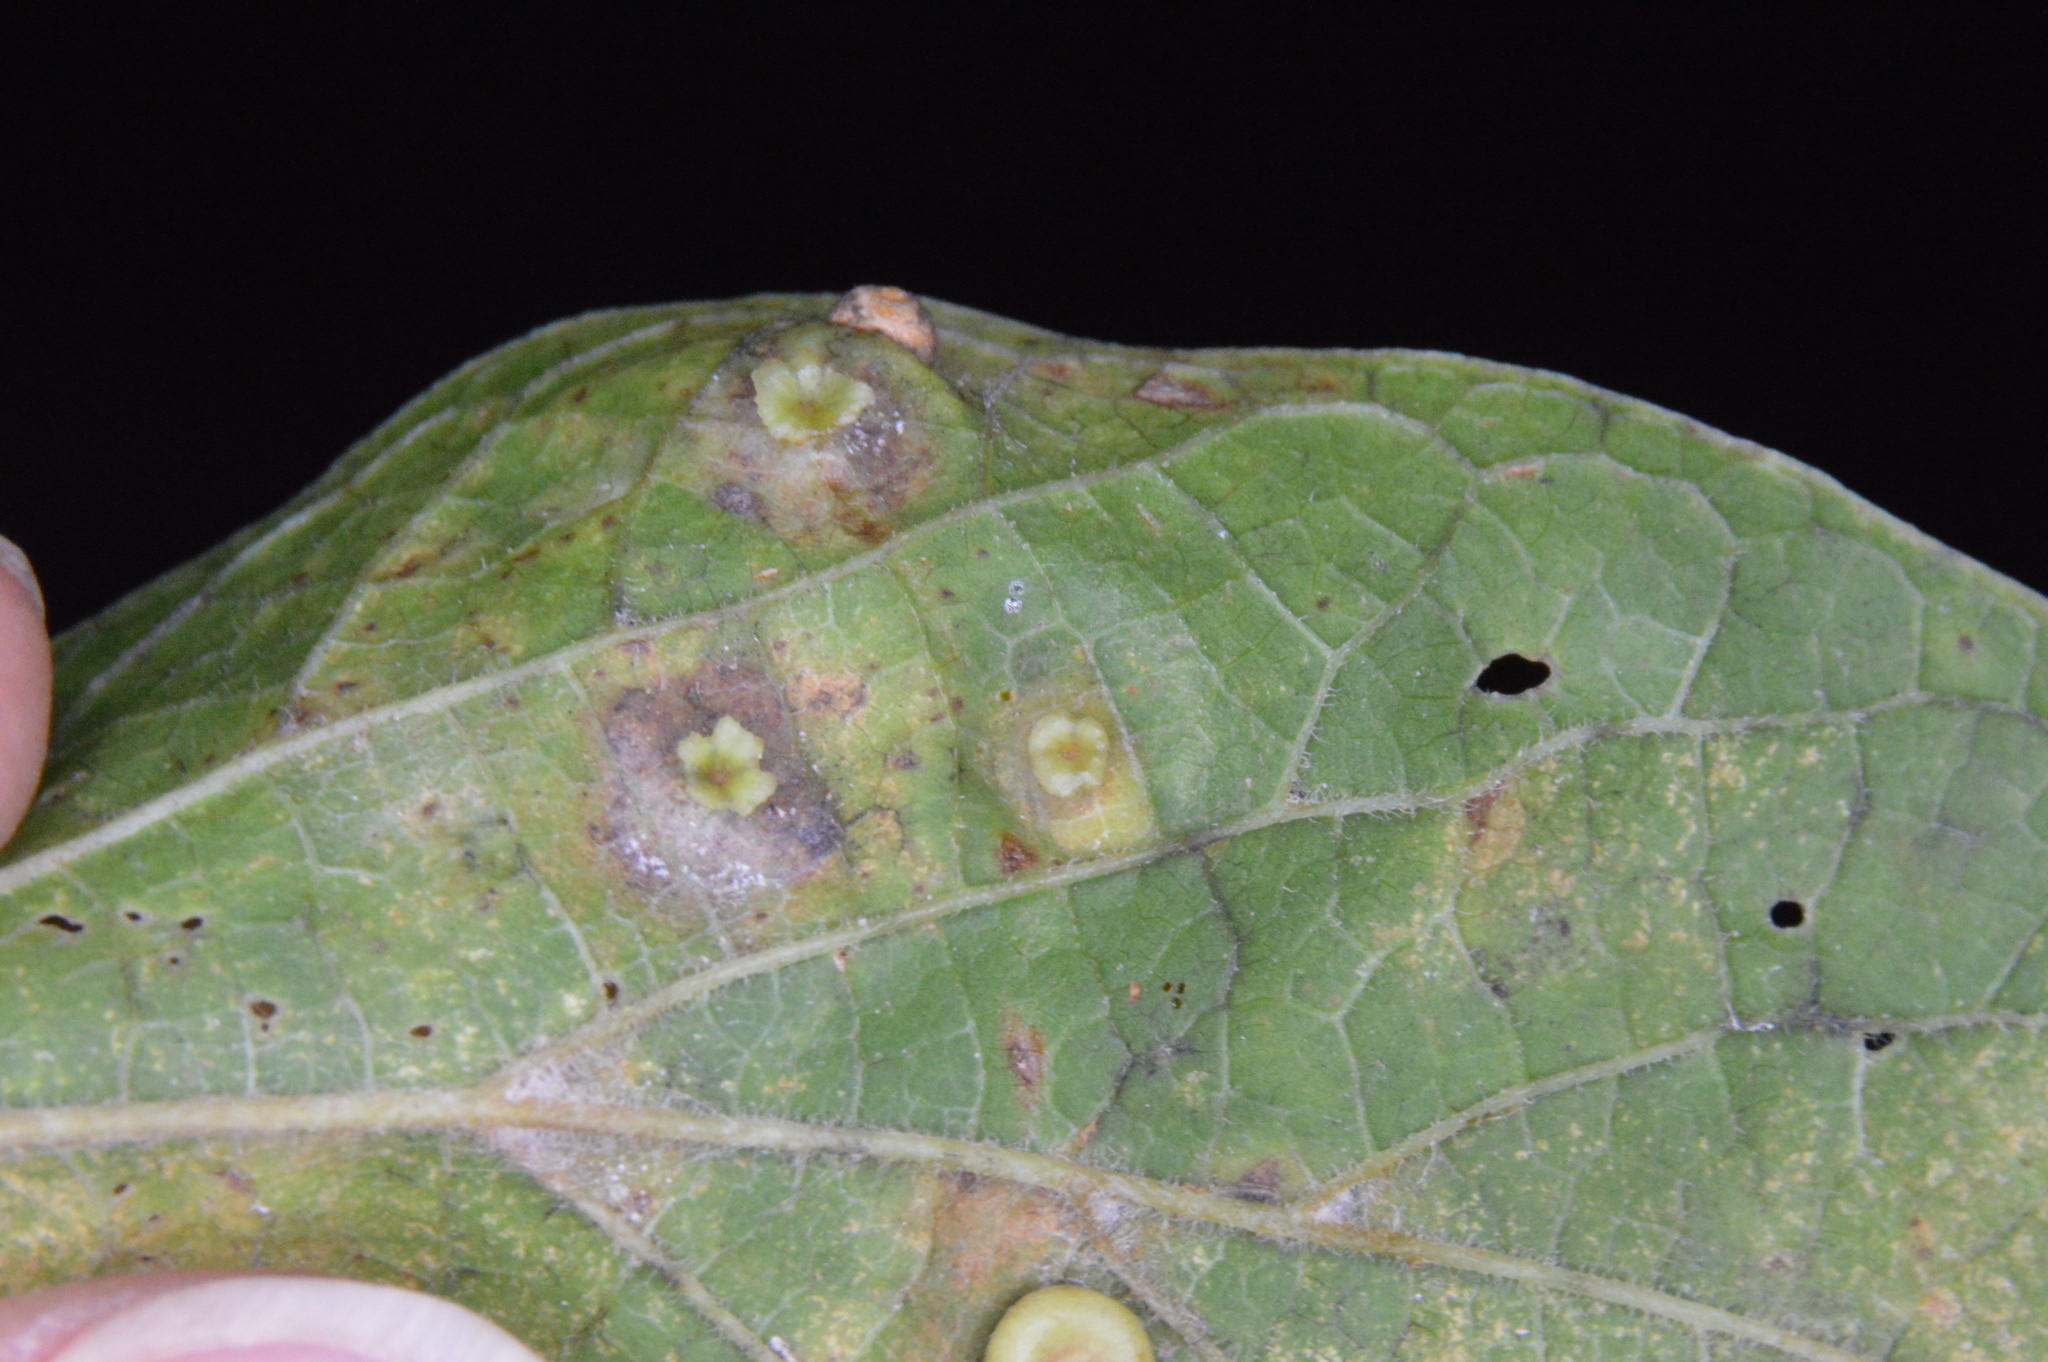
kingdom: Animalia
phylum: Arthropoda
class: Insecta
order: Hemiptera
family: Aphalaridae
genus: Pachypsylla
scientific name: Pachypsylla celtidisasterisca
